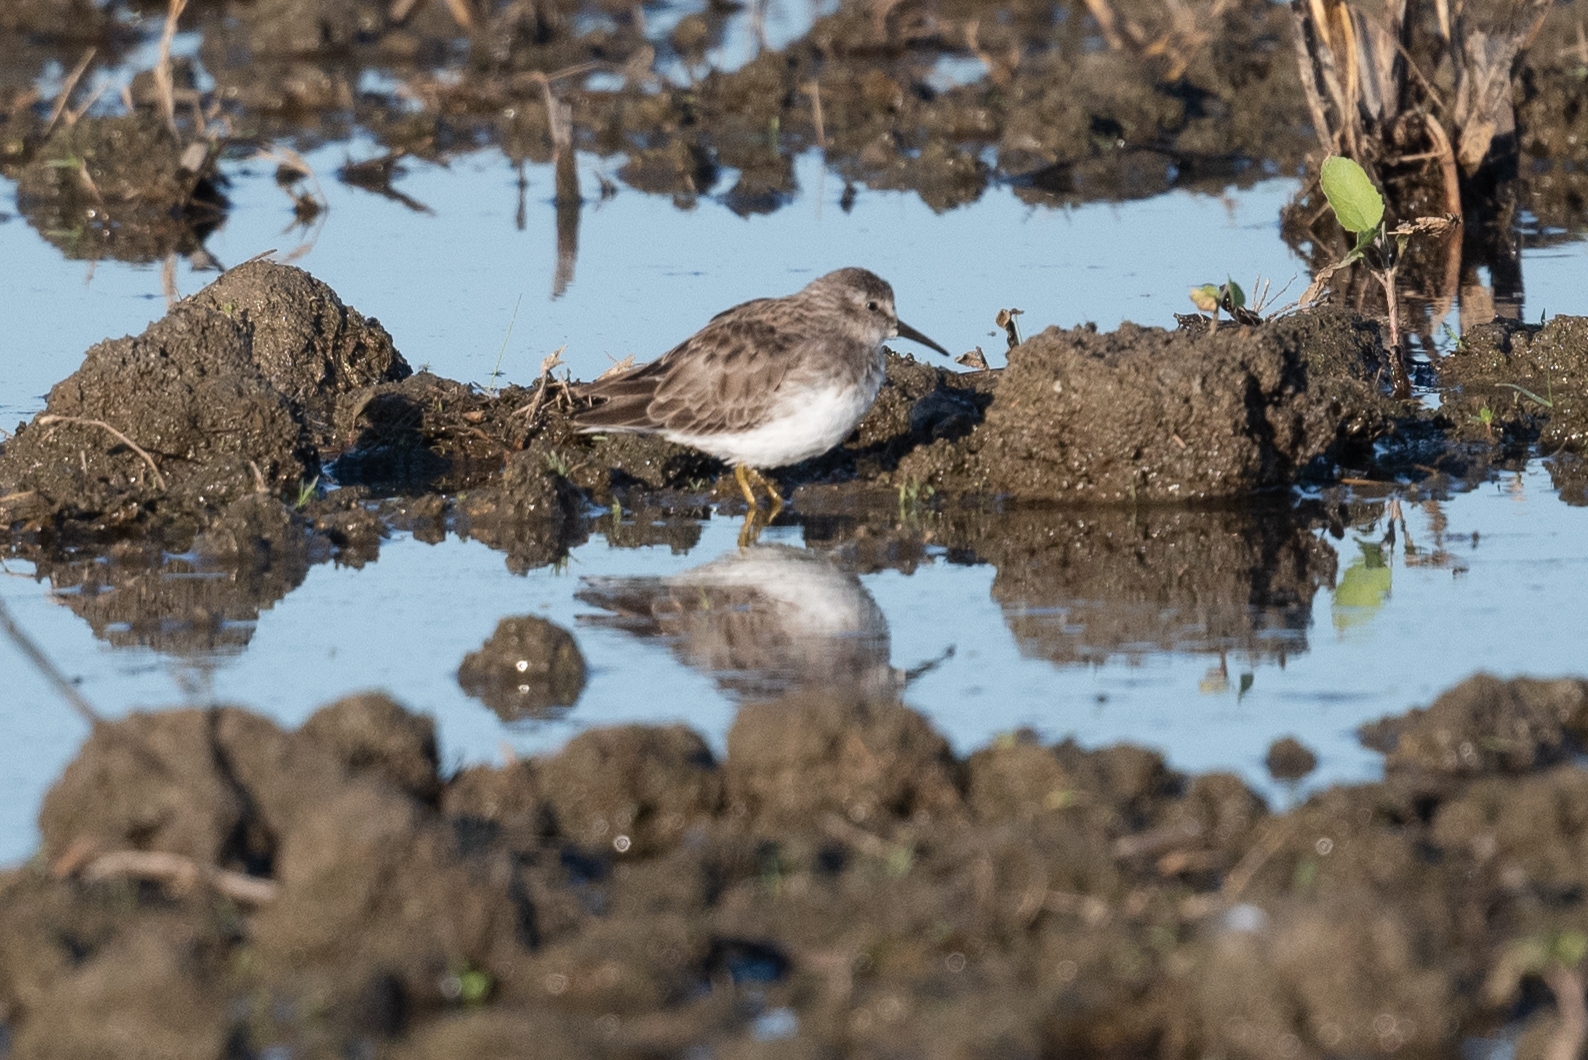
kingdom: Animalia
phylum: Chordata
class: Aves
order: Charadriiformes
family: Scolopacidae
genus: Calidris
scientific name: Calidris minutilla
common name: Least sandpiper
